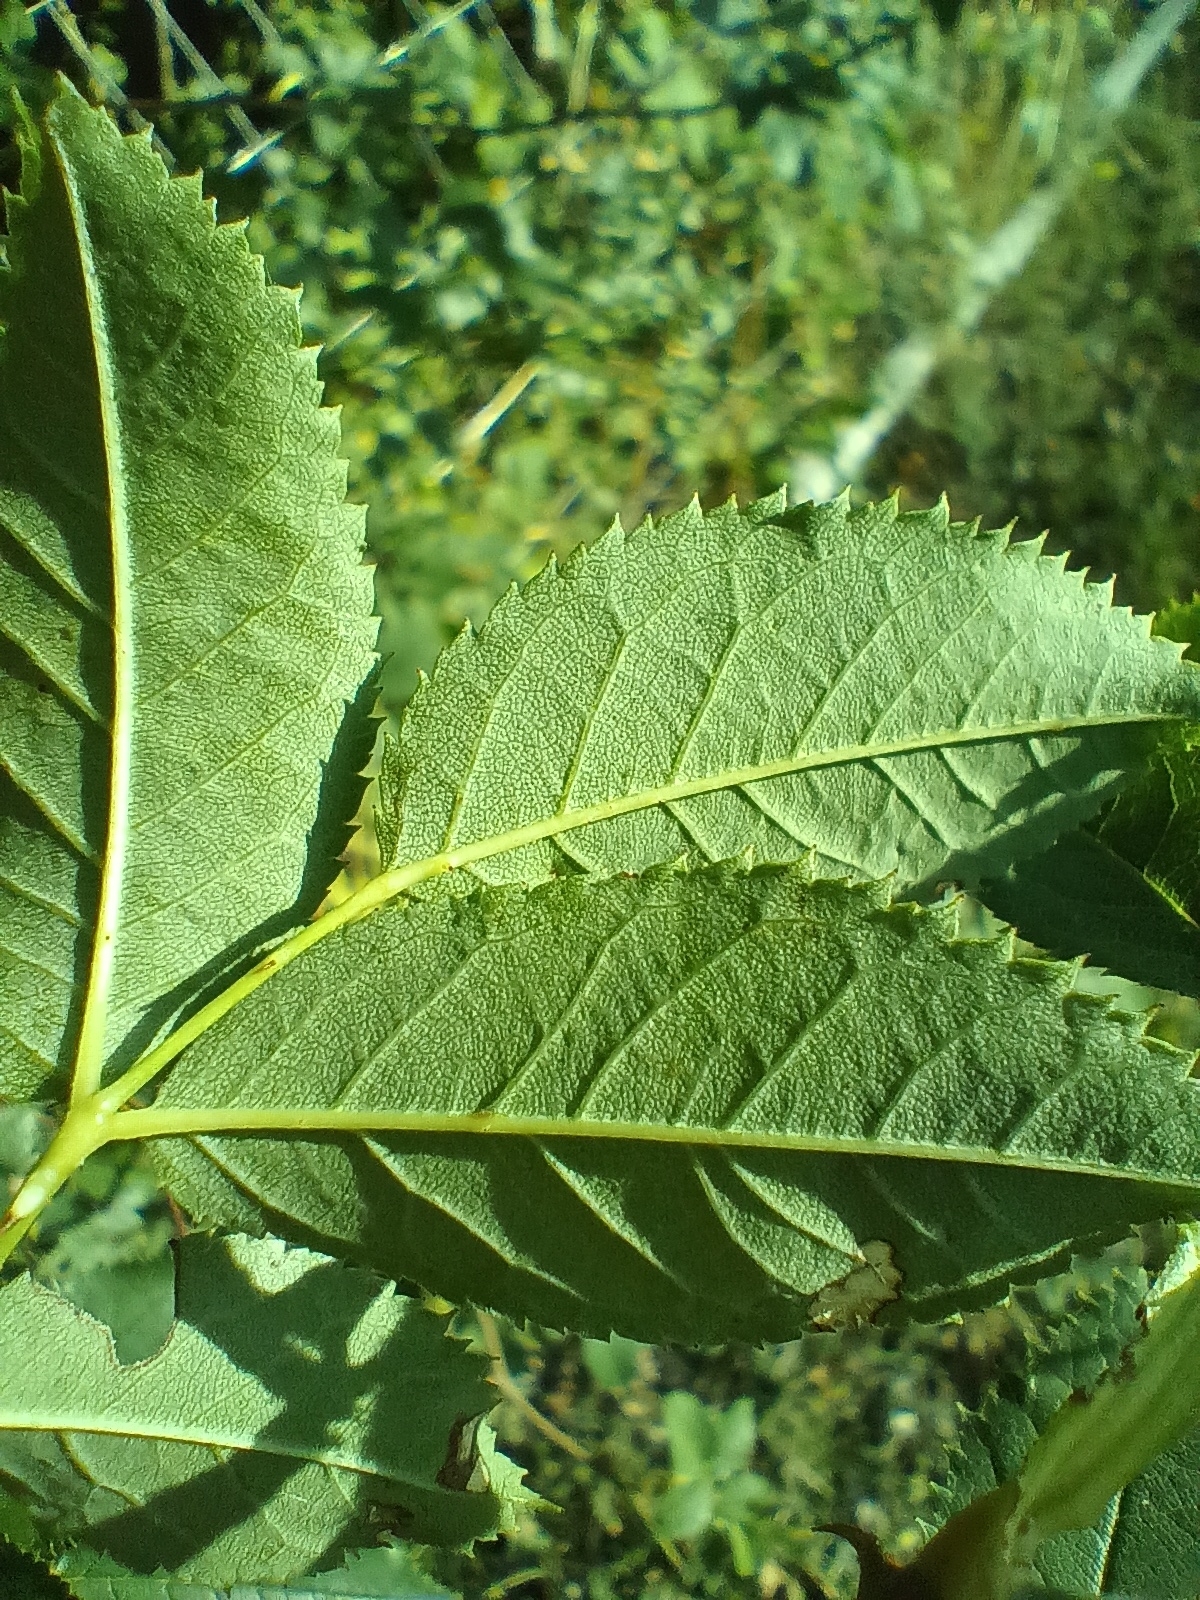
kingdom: Plantae
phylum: Tracheophyta
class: Magnoliopsida
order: Rosales
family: Rosaceae
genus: Rosa
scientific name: Rosa canina
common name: Dog rose
